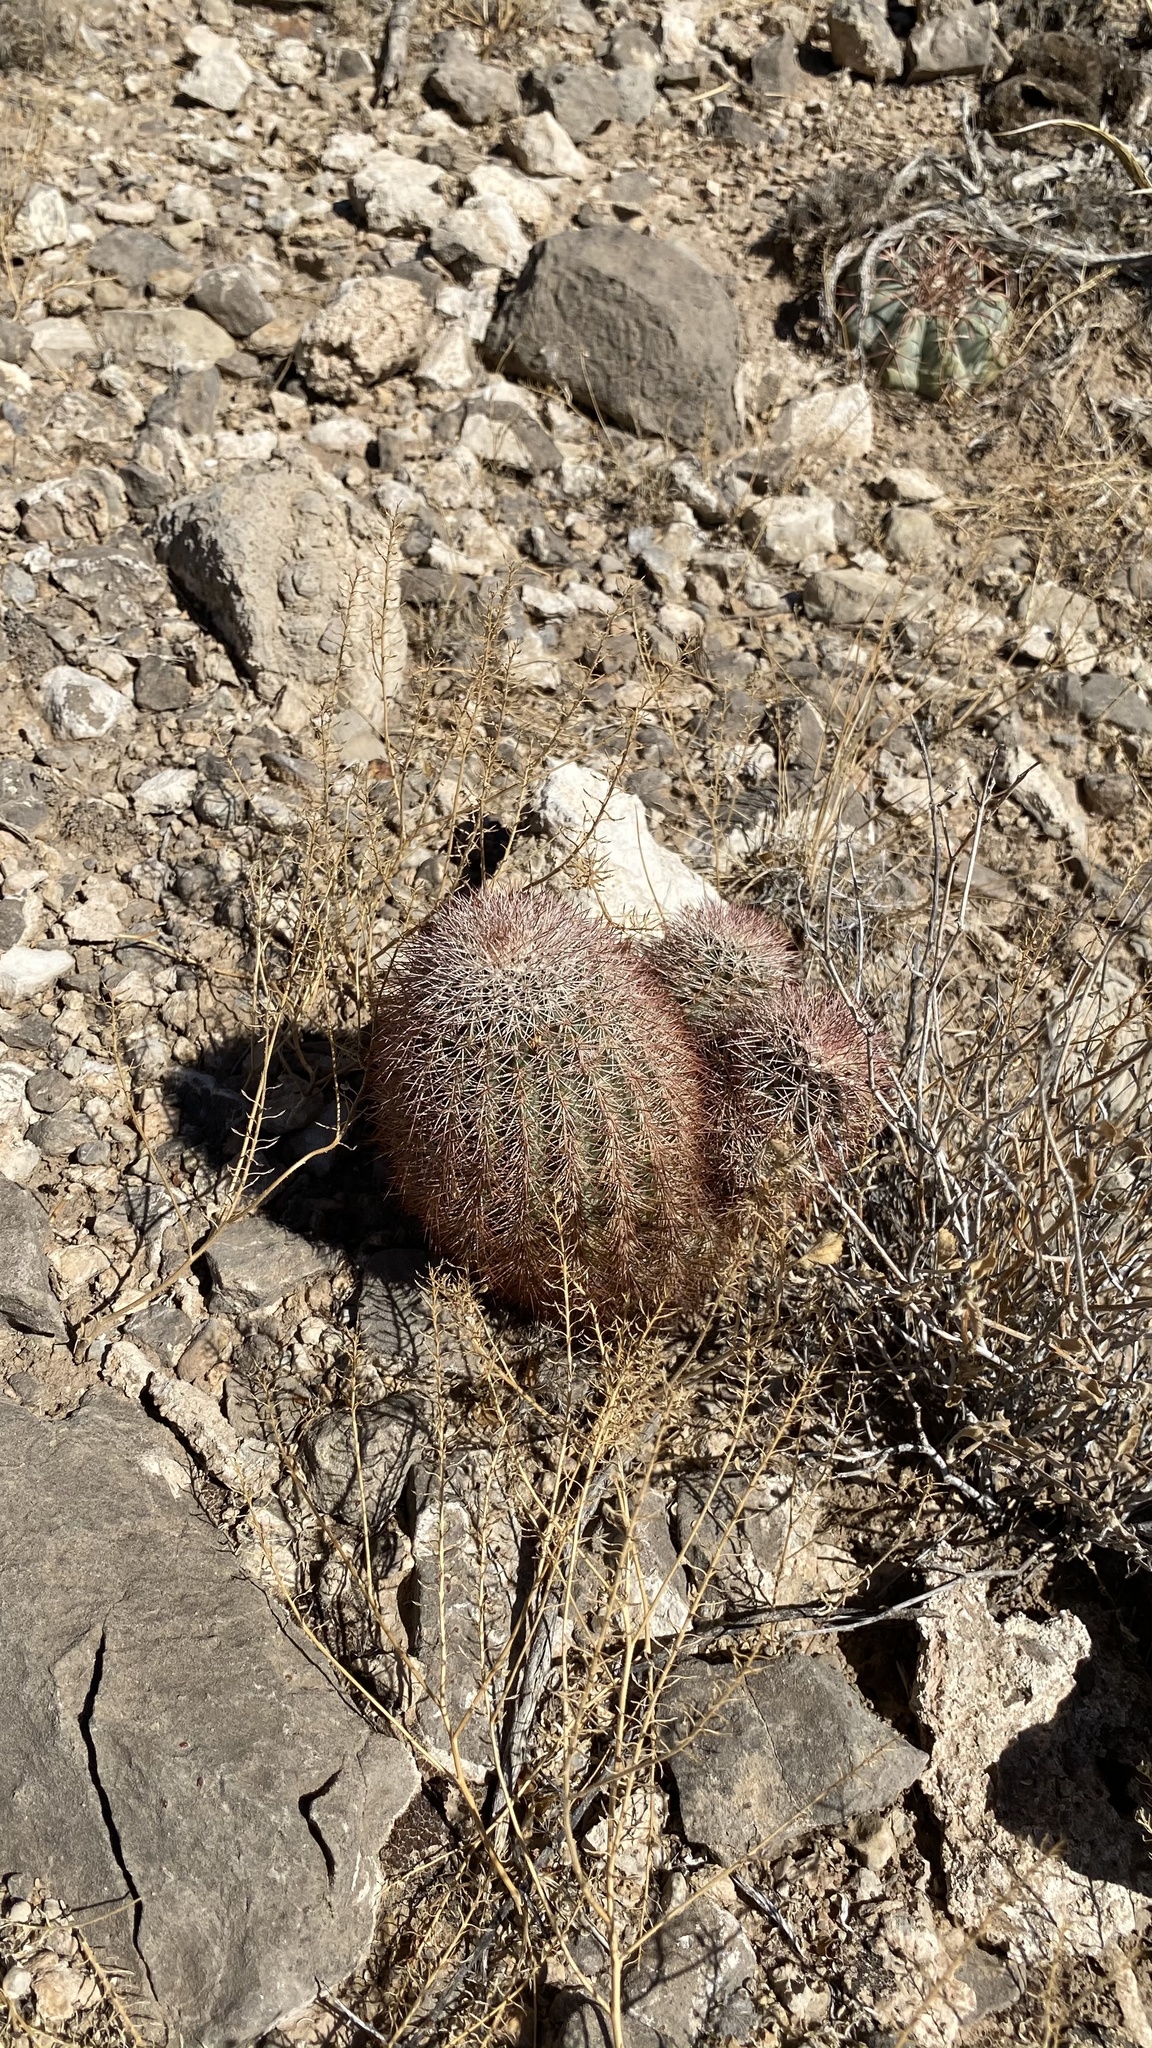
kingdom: Plantae
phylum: Tracheophyta
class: Magnoliopsida
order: Caryophyllales
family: Cactaceae
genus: Echinocereus
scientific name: Echinocereus dasyacanthus
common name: Spiny hedgehog cactus
